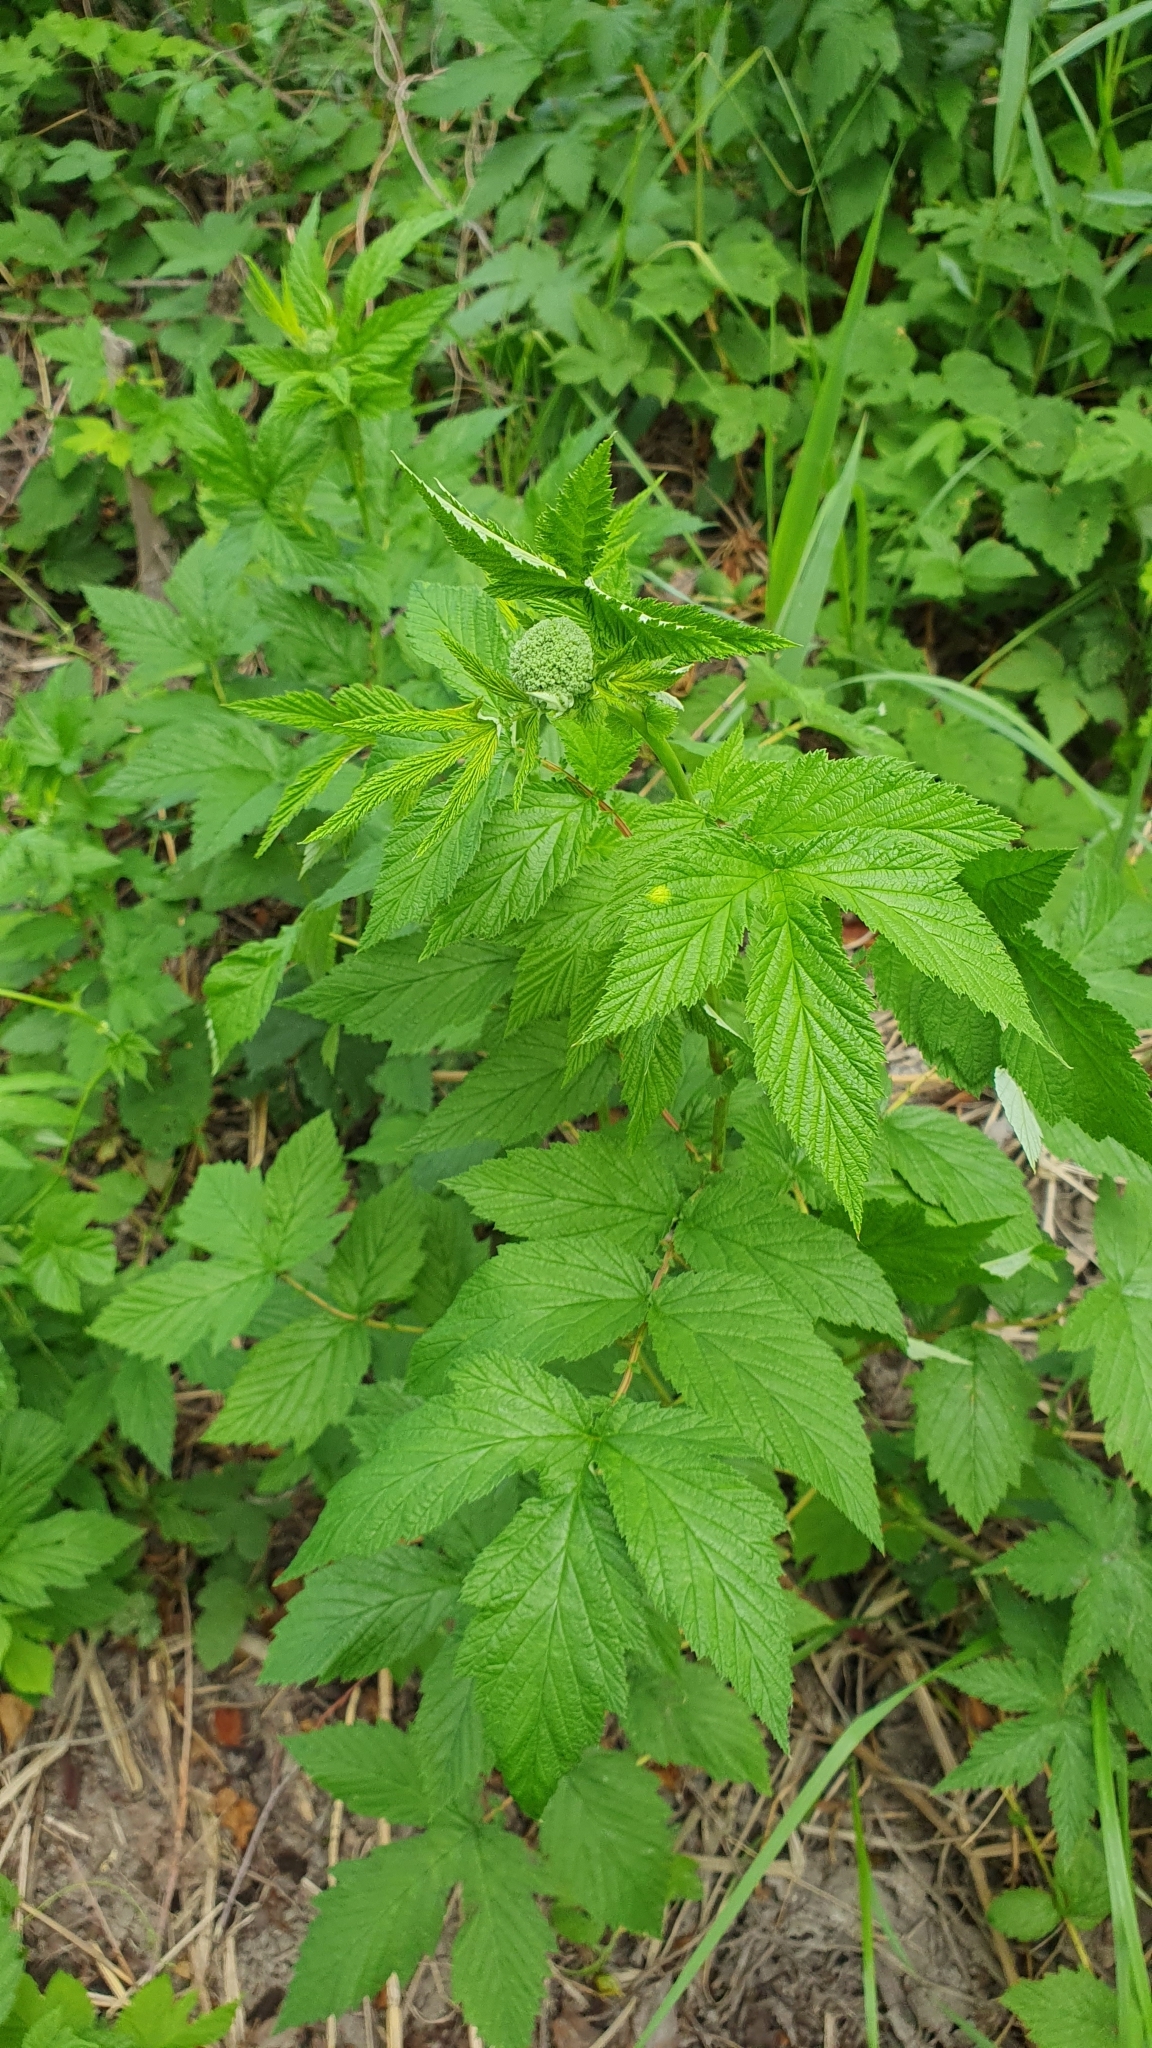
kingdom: Plantae
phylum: Tracheophyta
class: Magnoliopsida
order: Rosales
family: Rosaceae
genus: Filipendula
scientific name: Filipendula ulmaria
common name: Meadowsweet
